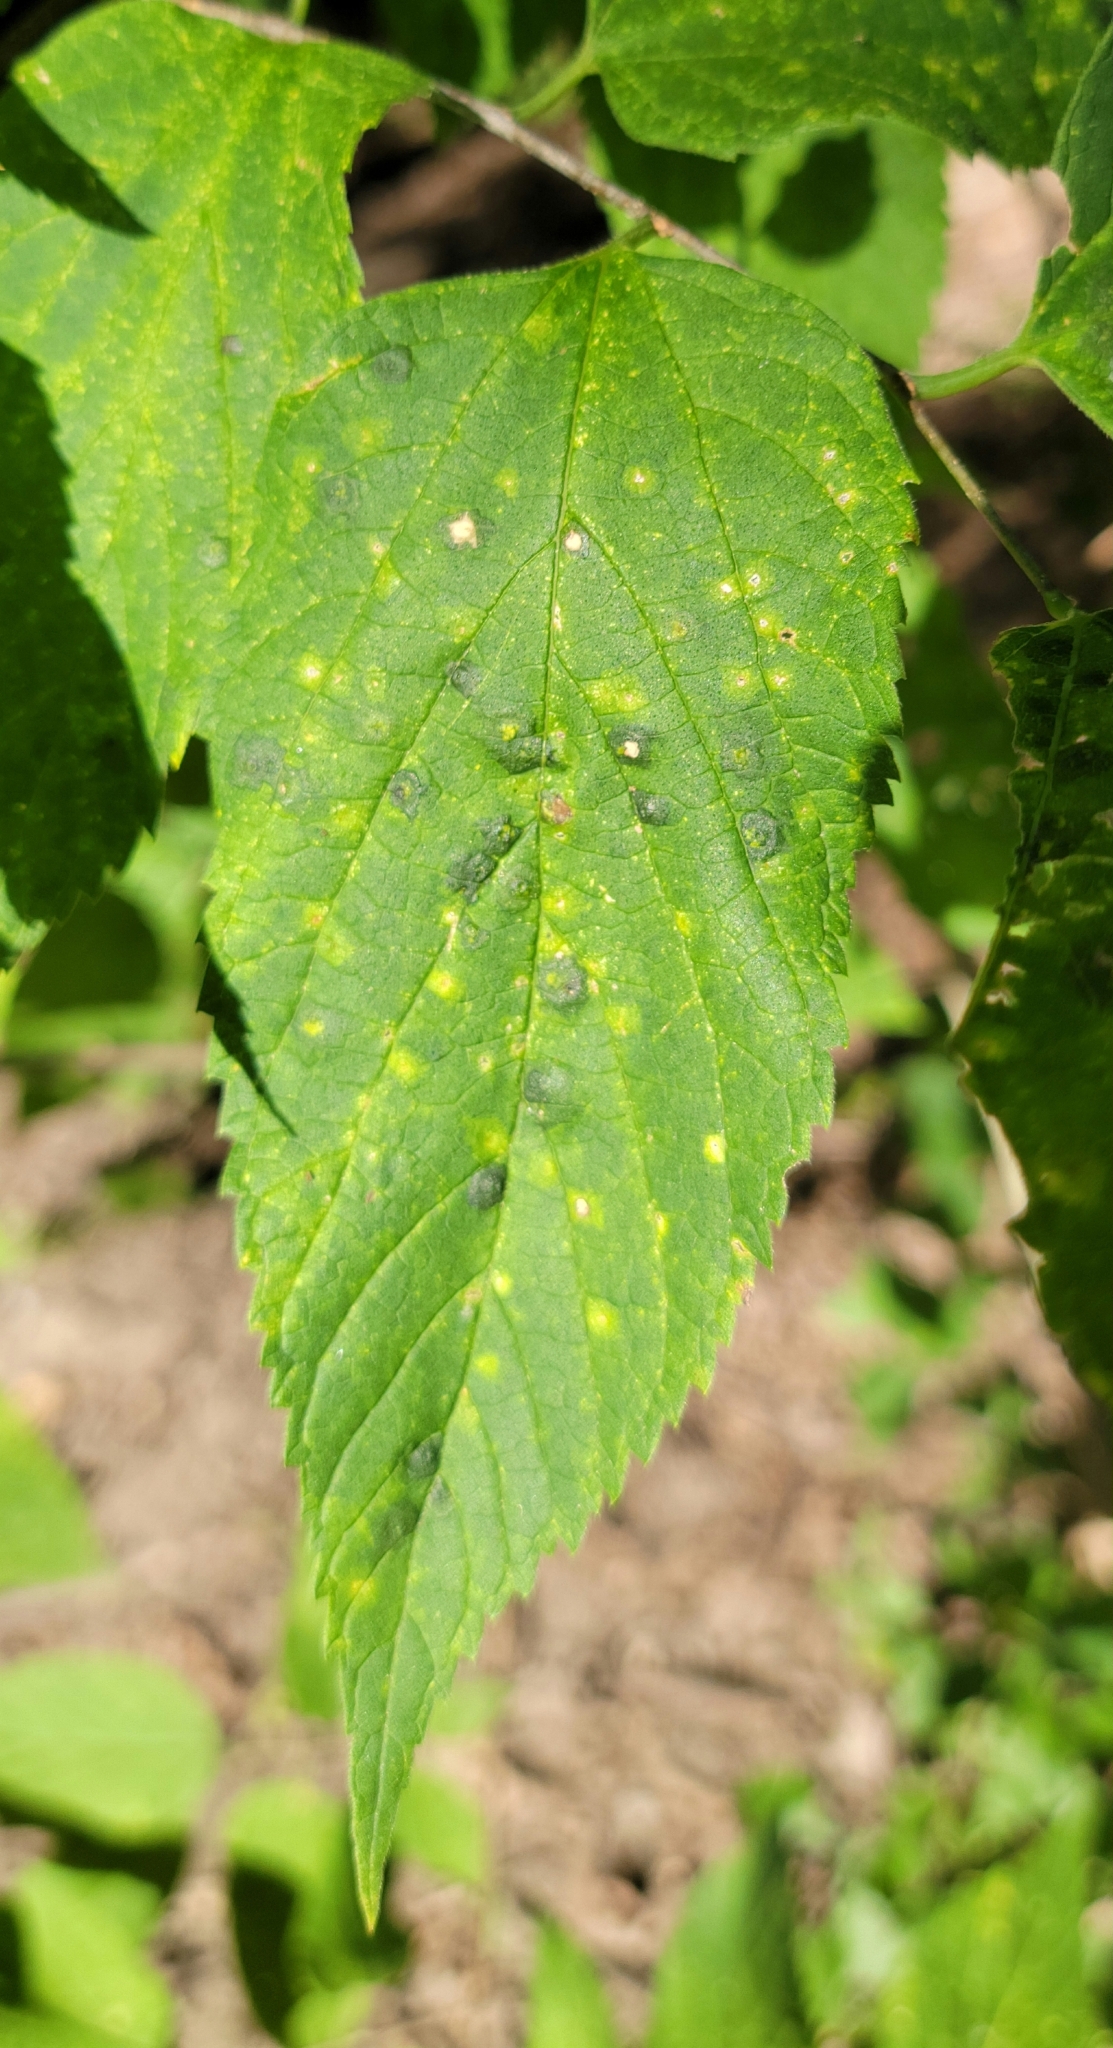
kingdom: Animalia
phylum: Arthropoda
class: Insecta
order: Hemiptera
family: Aphalaridae
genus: Pachypsylla
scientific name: Pachypsylla celtidisvesicula
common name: Hackberry blister gall psyllid
